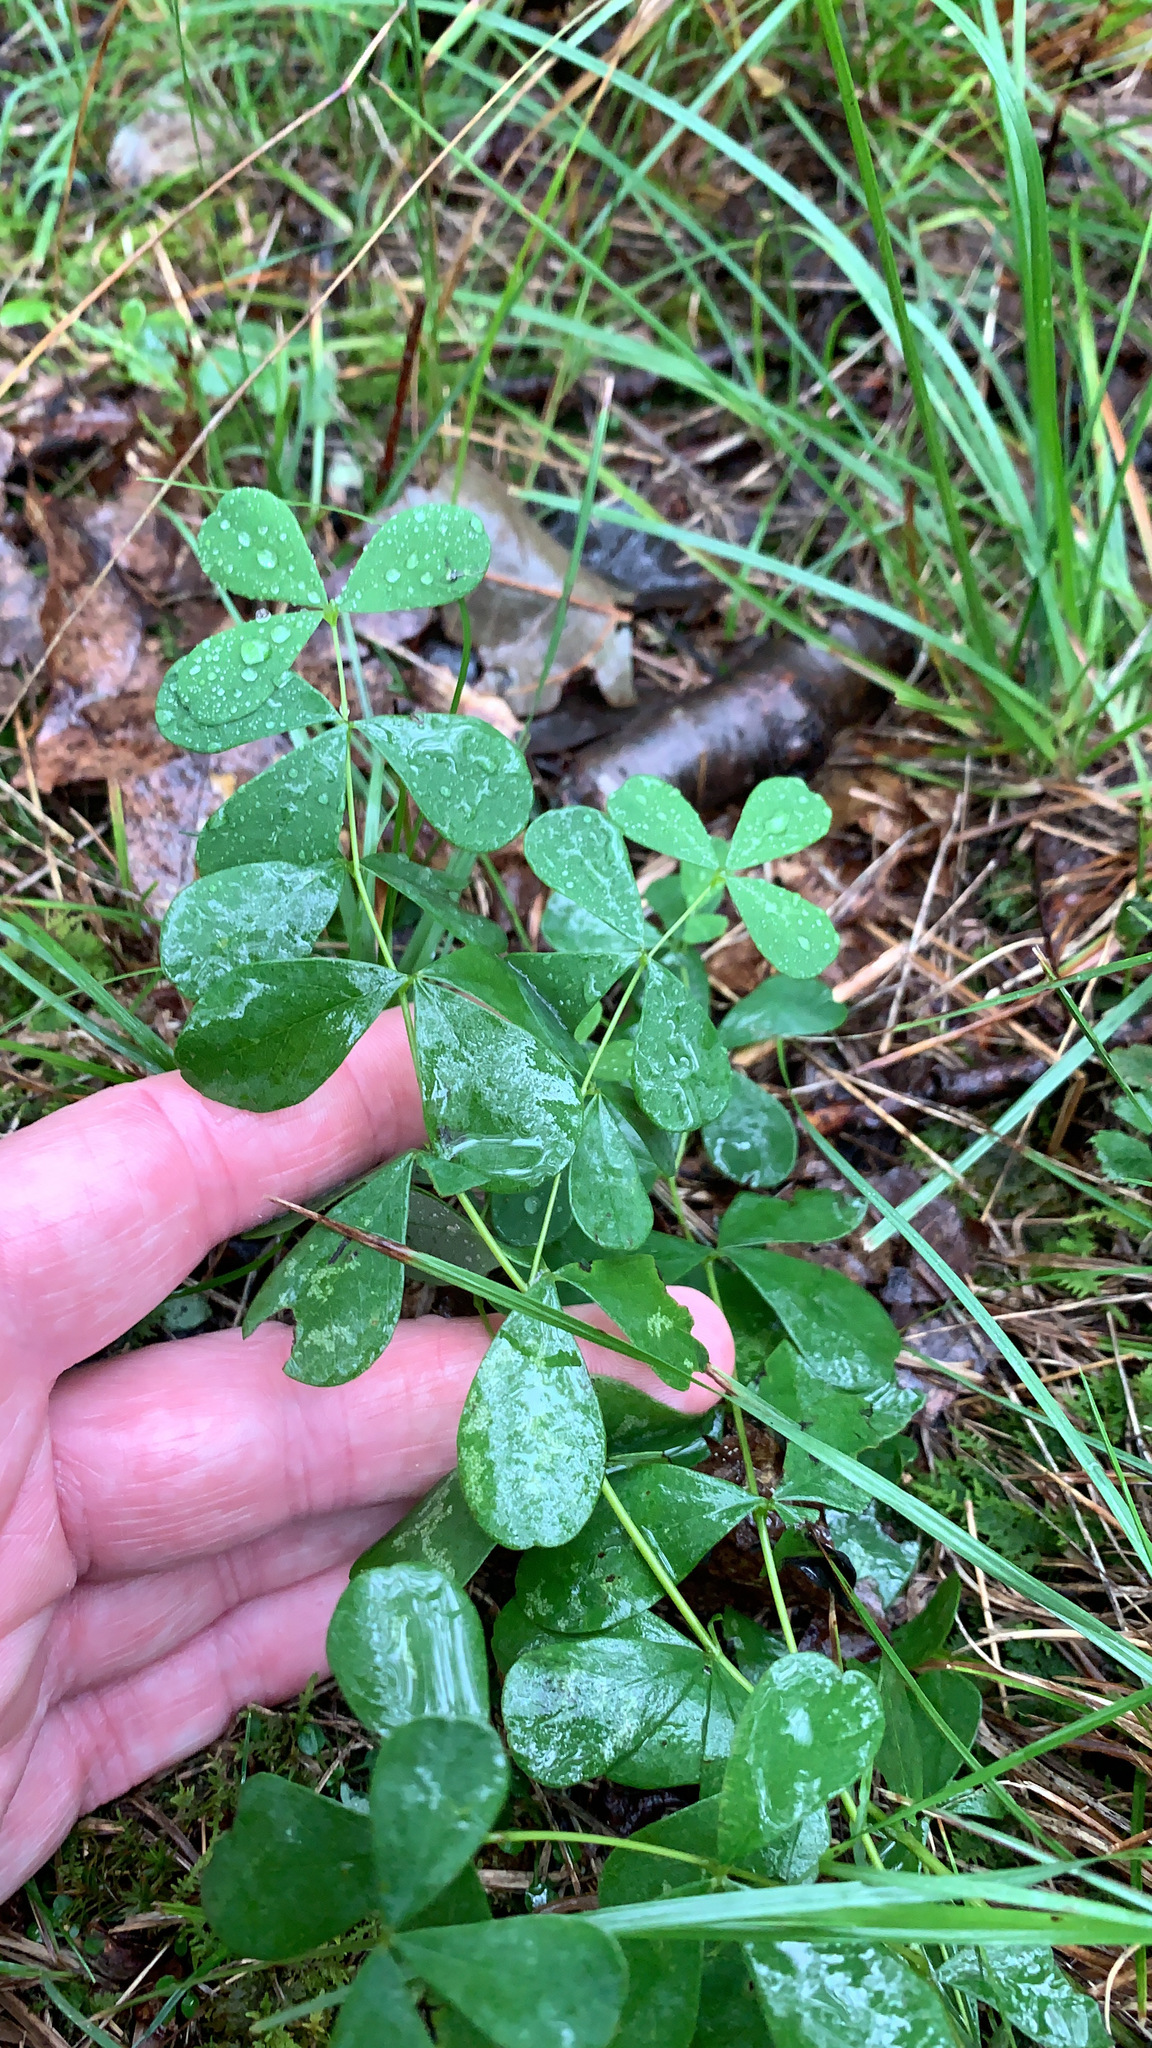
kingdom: Plantae
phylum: Tracheophyta
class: Magnoliopsida
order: Fabales
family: Fabaceae
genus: Baptisia
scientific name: Baptisia tinctoria
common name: Wild indigo
